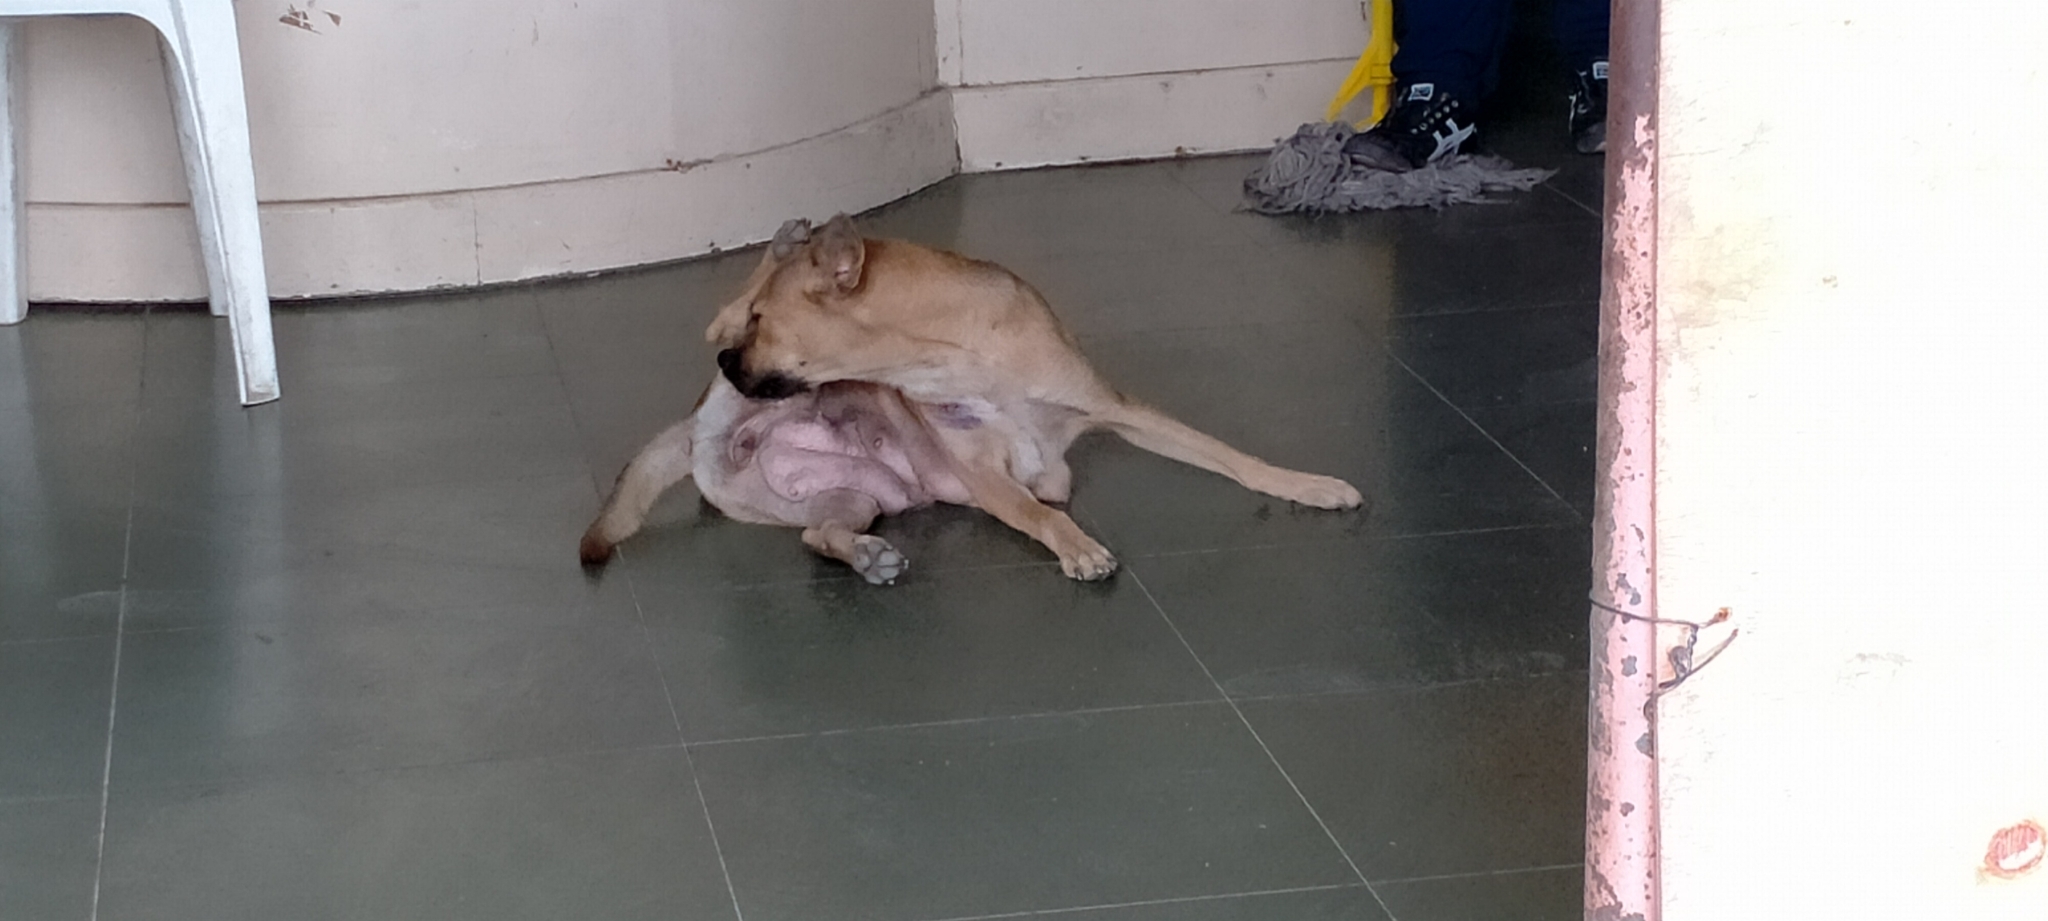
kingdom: Animalia
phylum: Chordata
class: Mammalia
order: Carnivora
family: Canidae
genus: Canis
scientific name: Canis lupus
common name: Gray wolf
